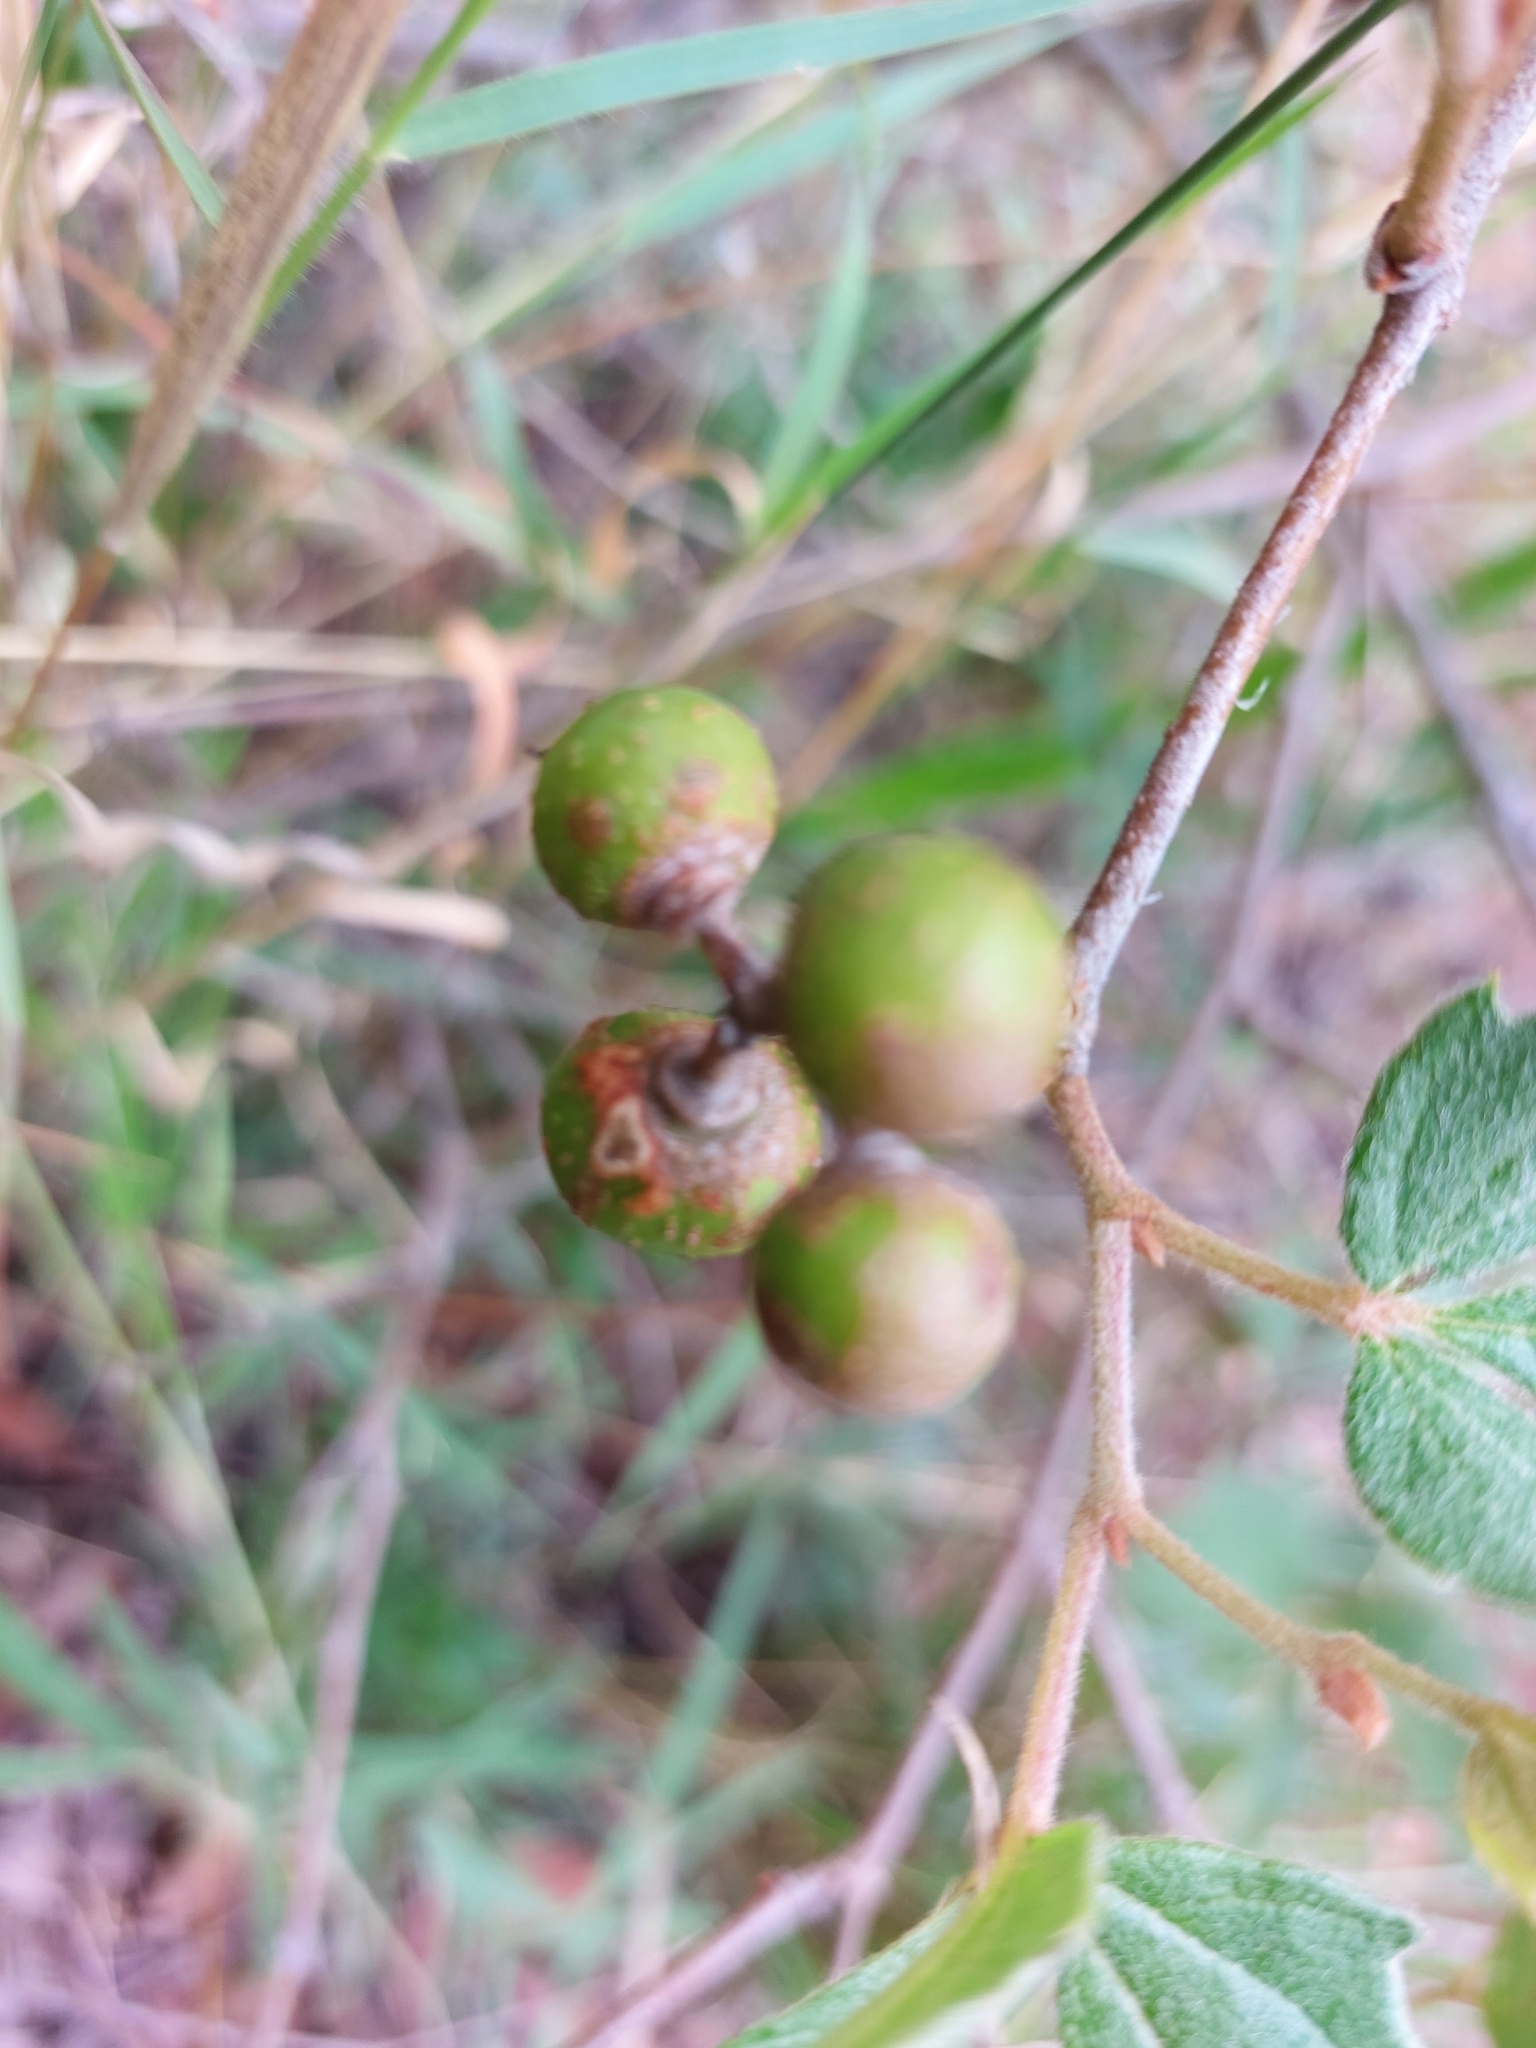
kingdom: Plantae
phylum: Tracheophyta
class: Magnoliopsida
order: Vitales
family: Vitaceae
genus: Rhoicissus
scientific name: Rhoicissus tridentata
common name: Common forest grape
